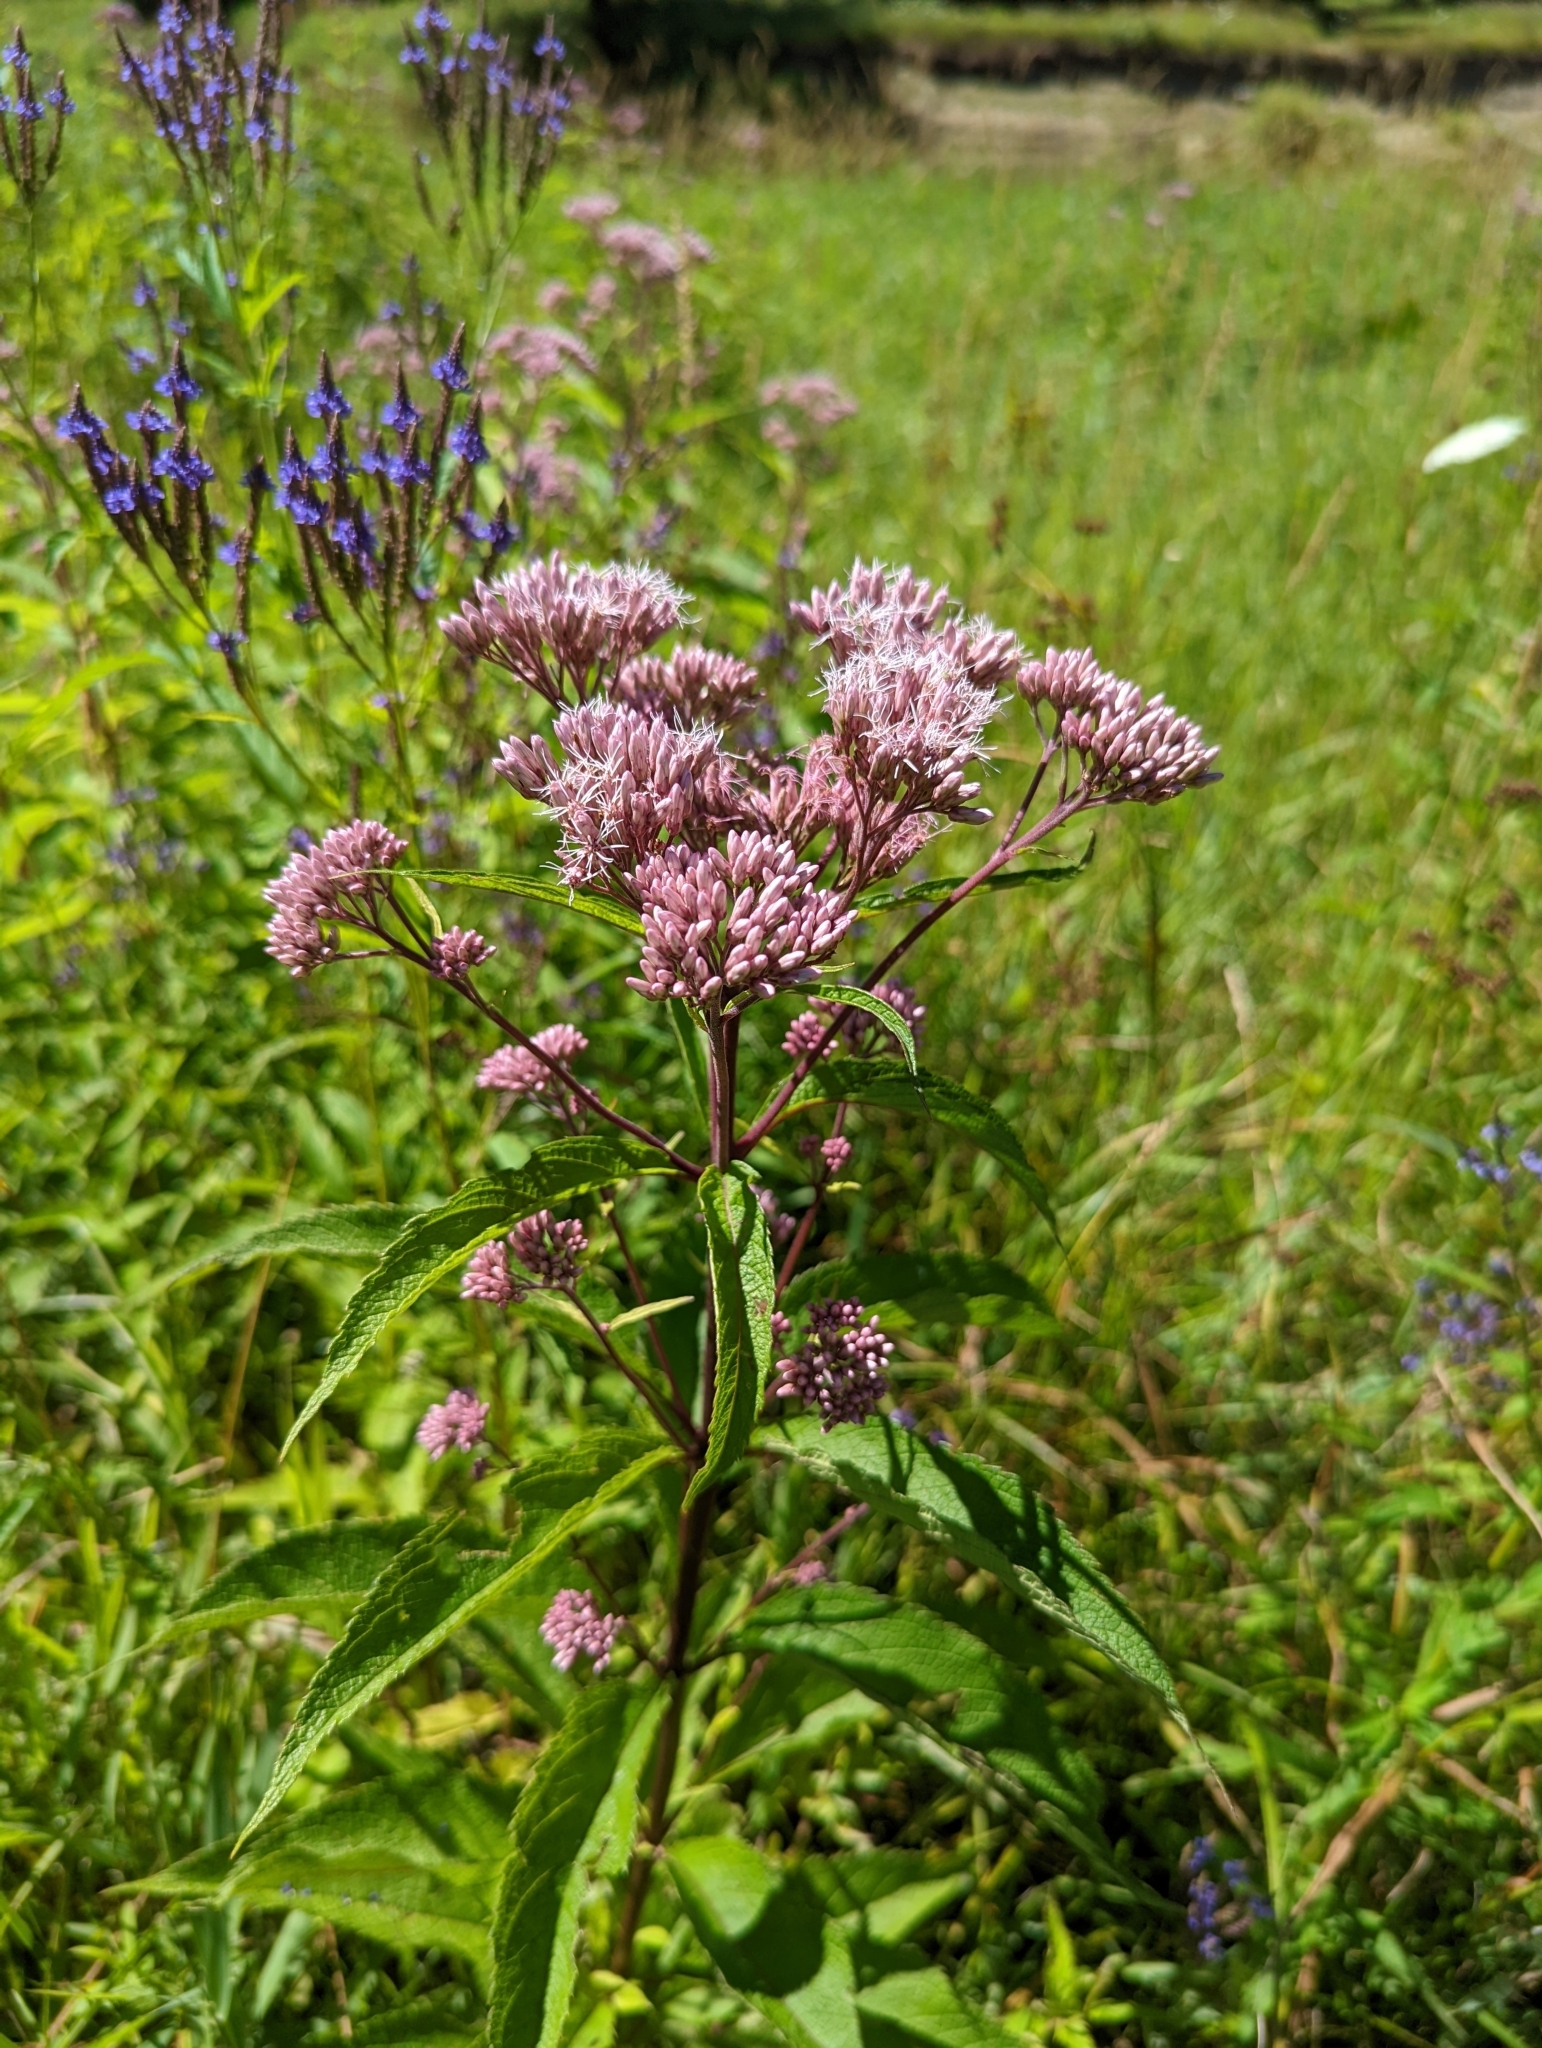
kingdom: Plantae
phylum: Tracheophyta
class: Magnoliopsida
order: Asterales
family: Asteraceae
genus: Eutrochium
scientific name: Eutrochium maculatum
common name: Spotted joe pye weed
